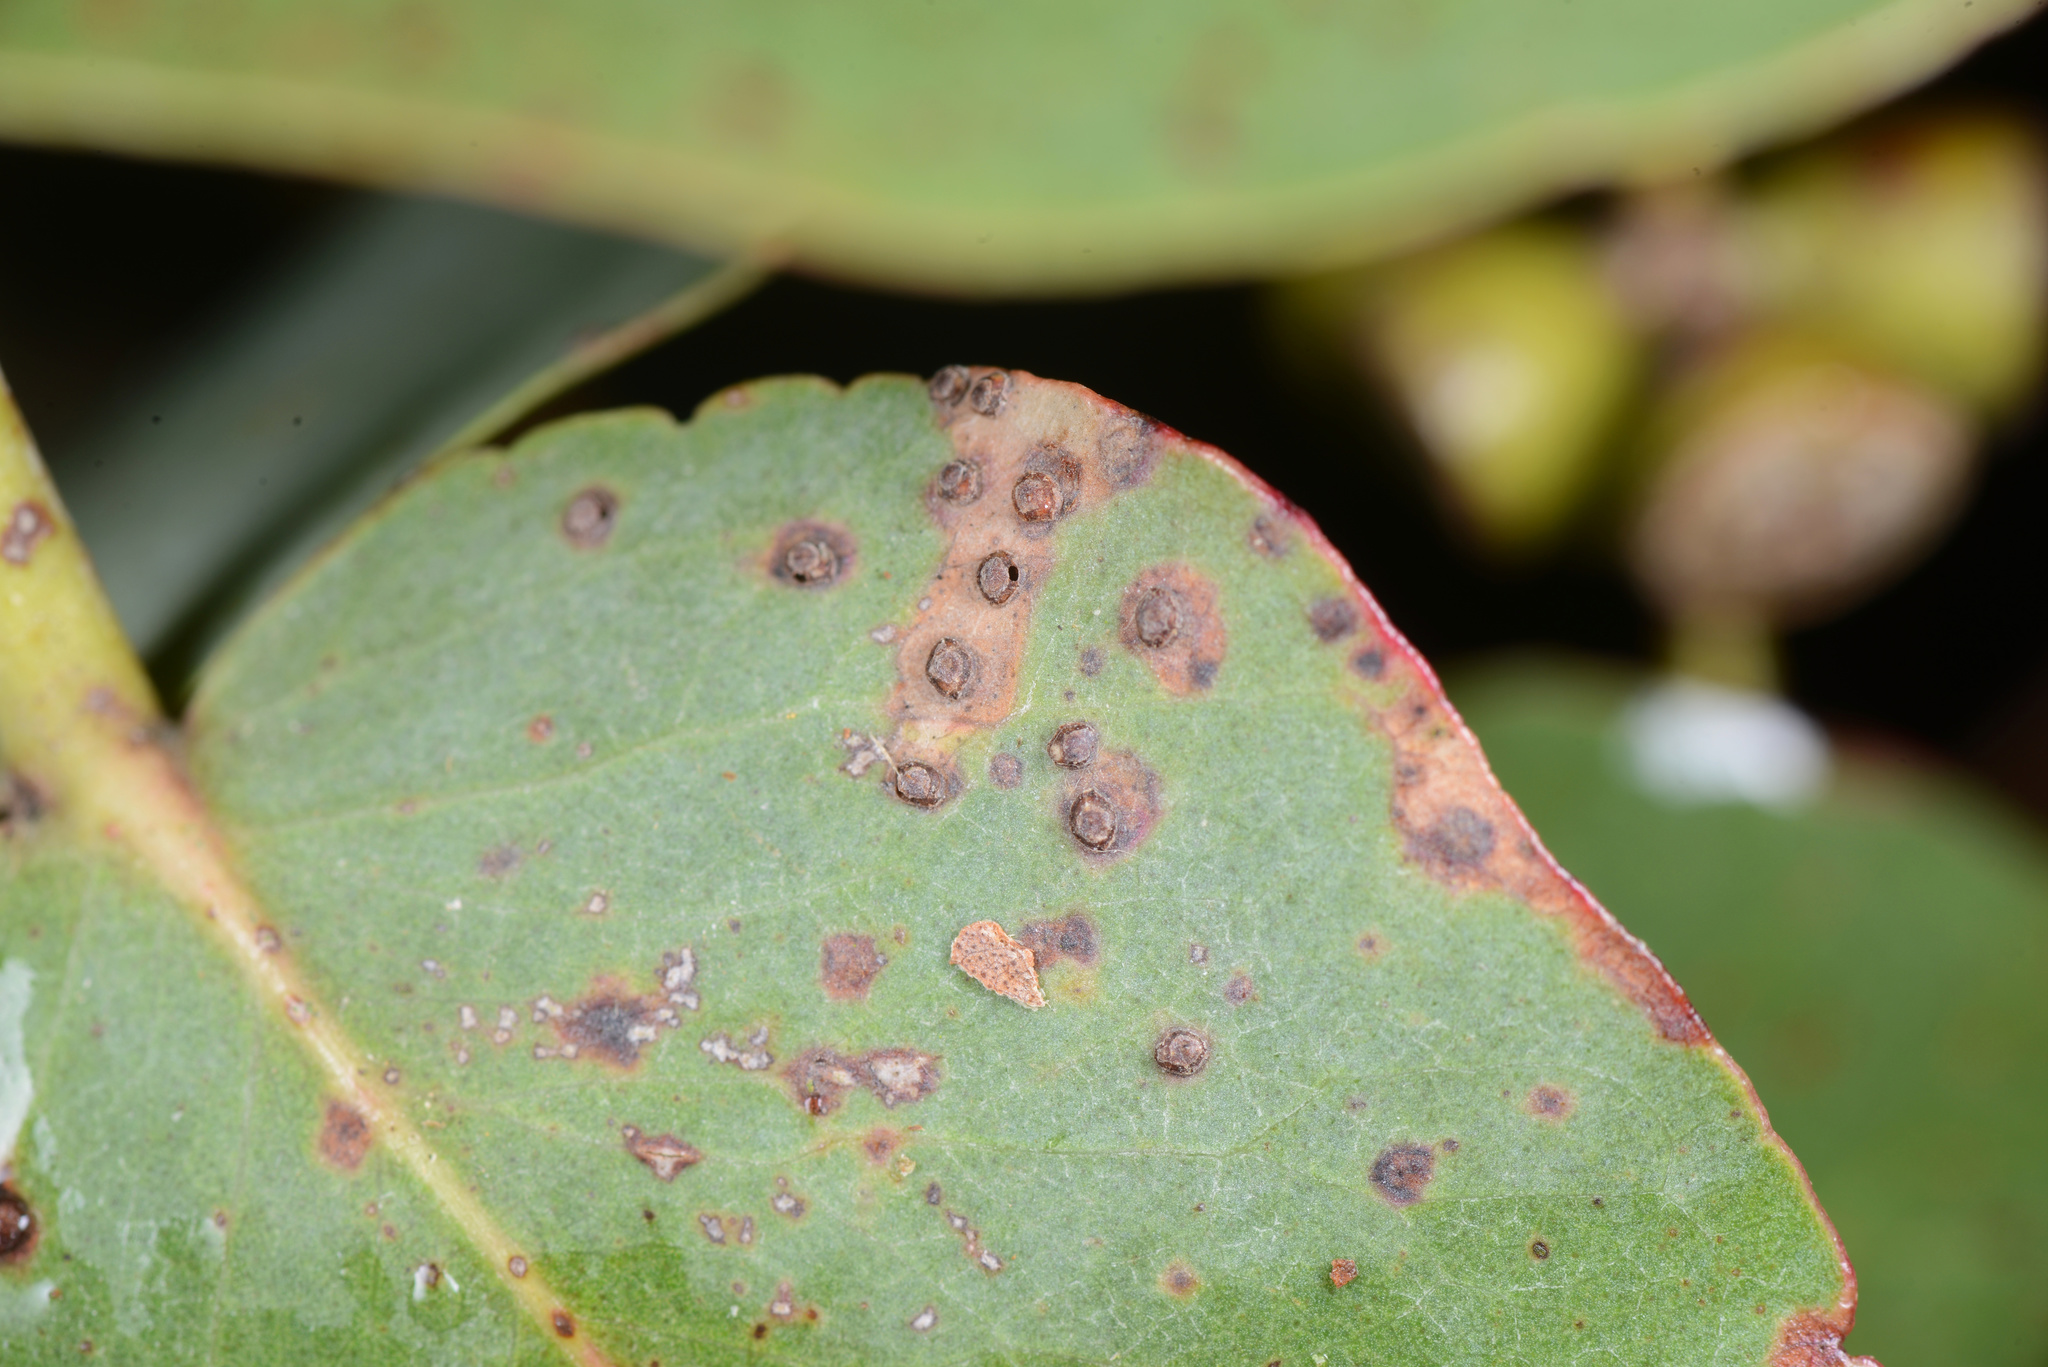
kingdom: Animalia
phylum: Arthropoda
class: Insecta
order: Hymenoptera
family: Eulophidae
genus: Ophelimus
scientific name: Ophelimus eucalypti
